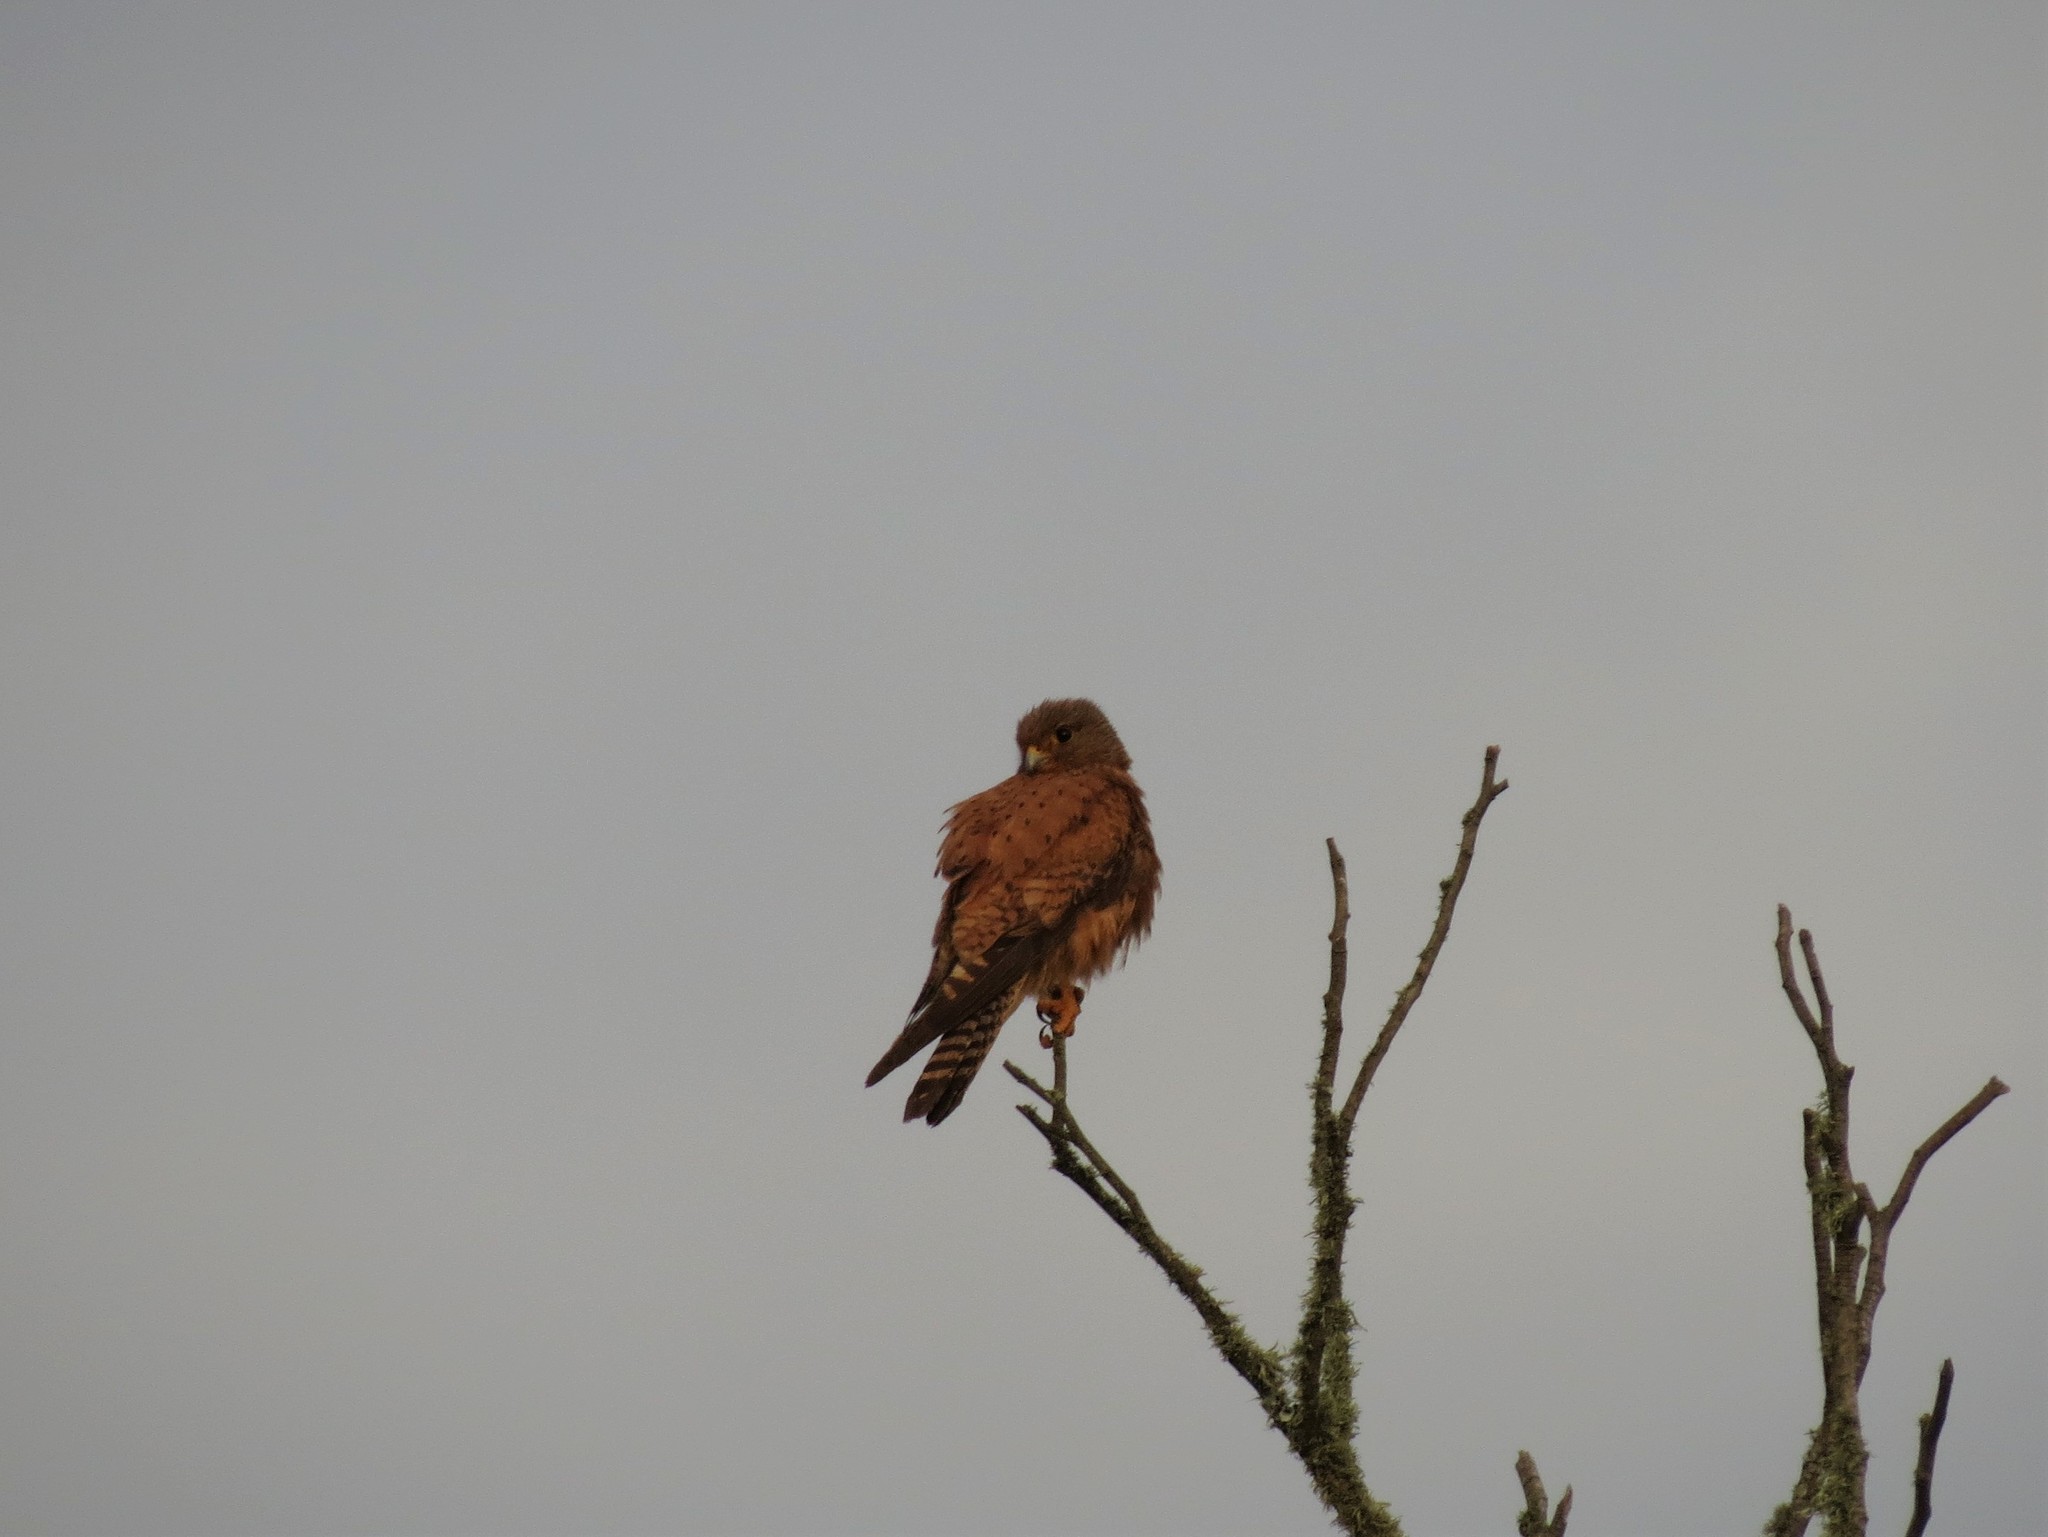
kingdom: Animalia
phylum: Chordata
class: Aves
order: Falconiformes
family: Falconidae
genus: Falco
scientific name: Falco rupicolus
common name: Rock kestrel
